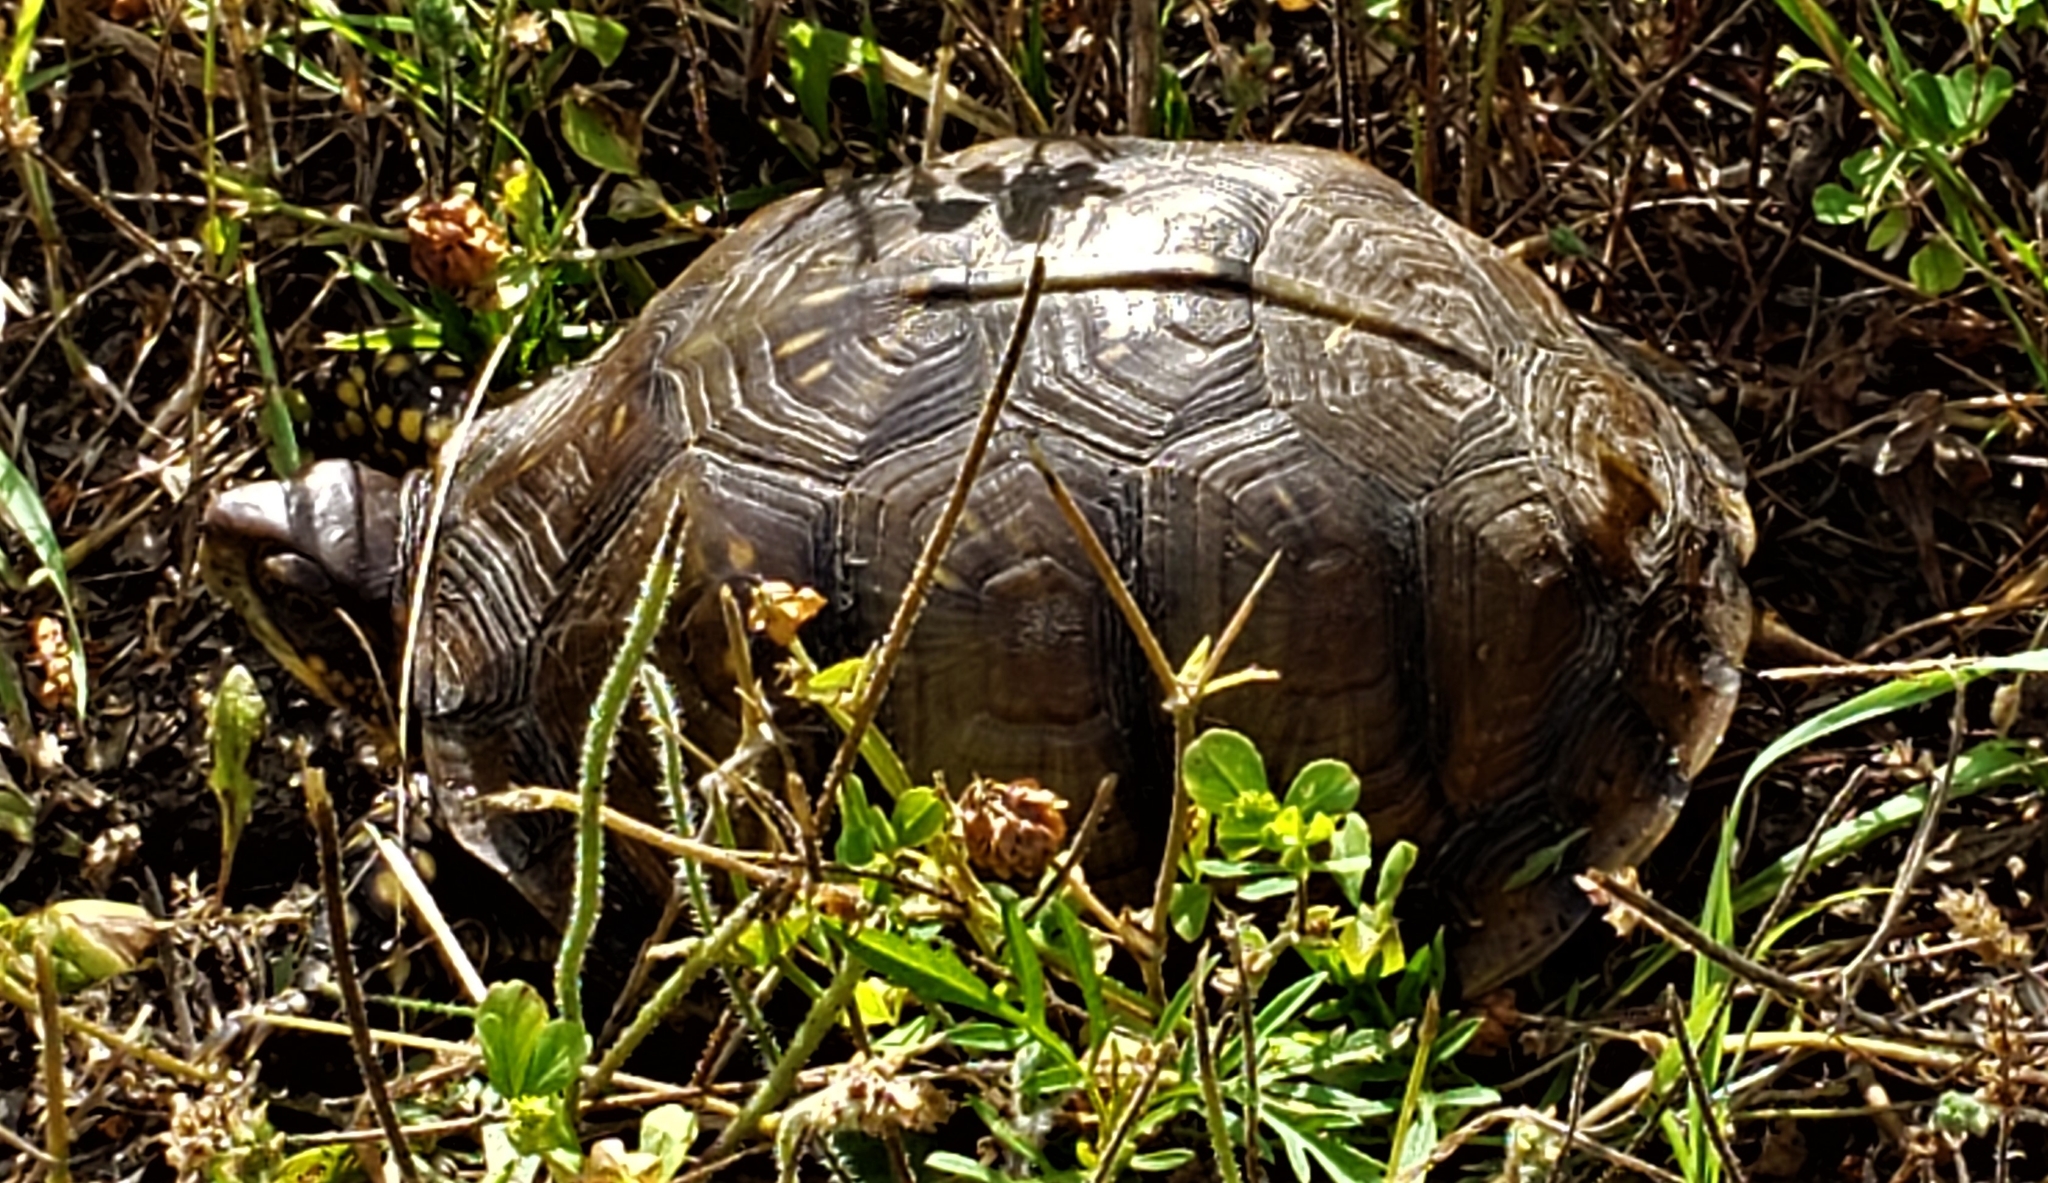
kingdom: Animalia
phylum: Chordata
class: Testudines
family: Emydidae
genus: Terrapene
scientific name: Terrapene carolina
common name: Common box turtle
